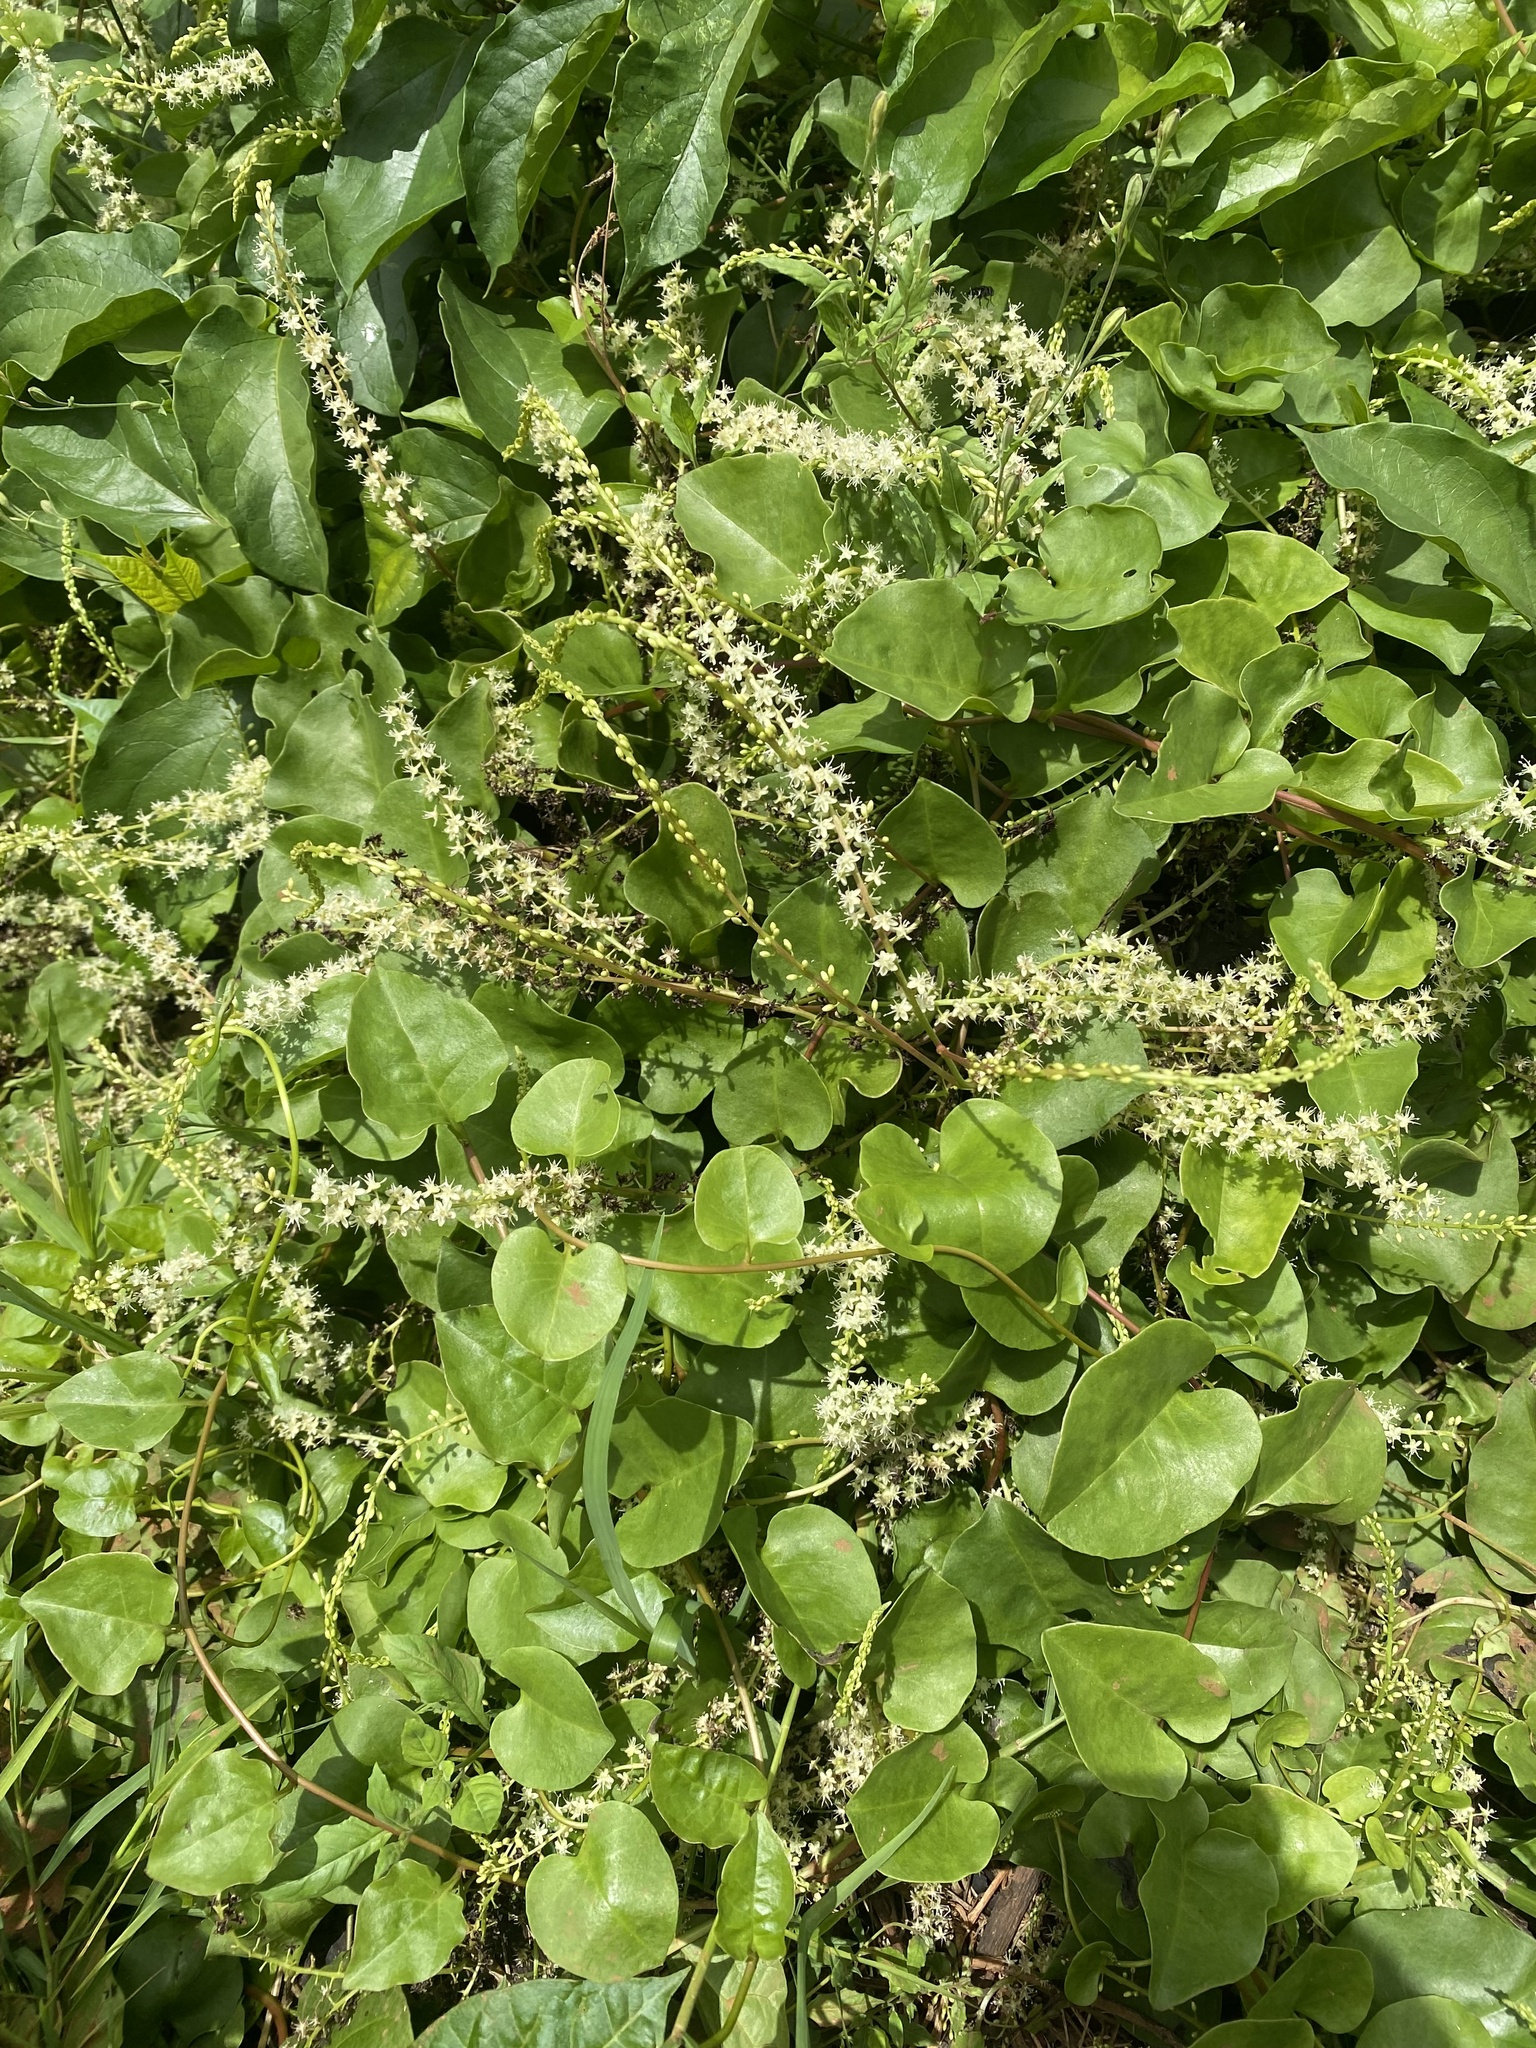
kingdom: Plantae
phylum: Tracheophyta
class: Magnoliopsida
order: Caryophyllales
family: Basellaceae
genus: Anredera
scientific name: Anredera cordifolia
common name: Heartleaf madeiravine
